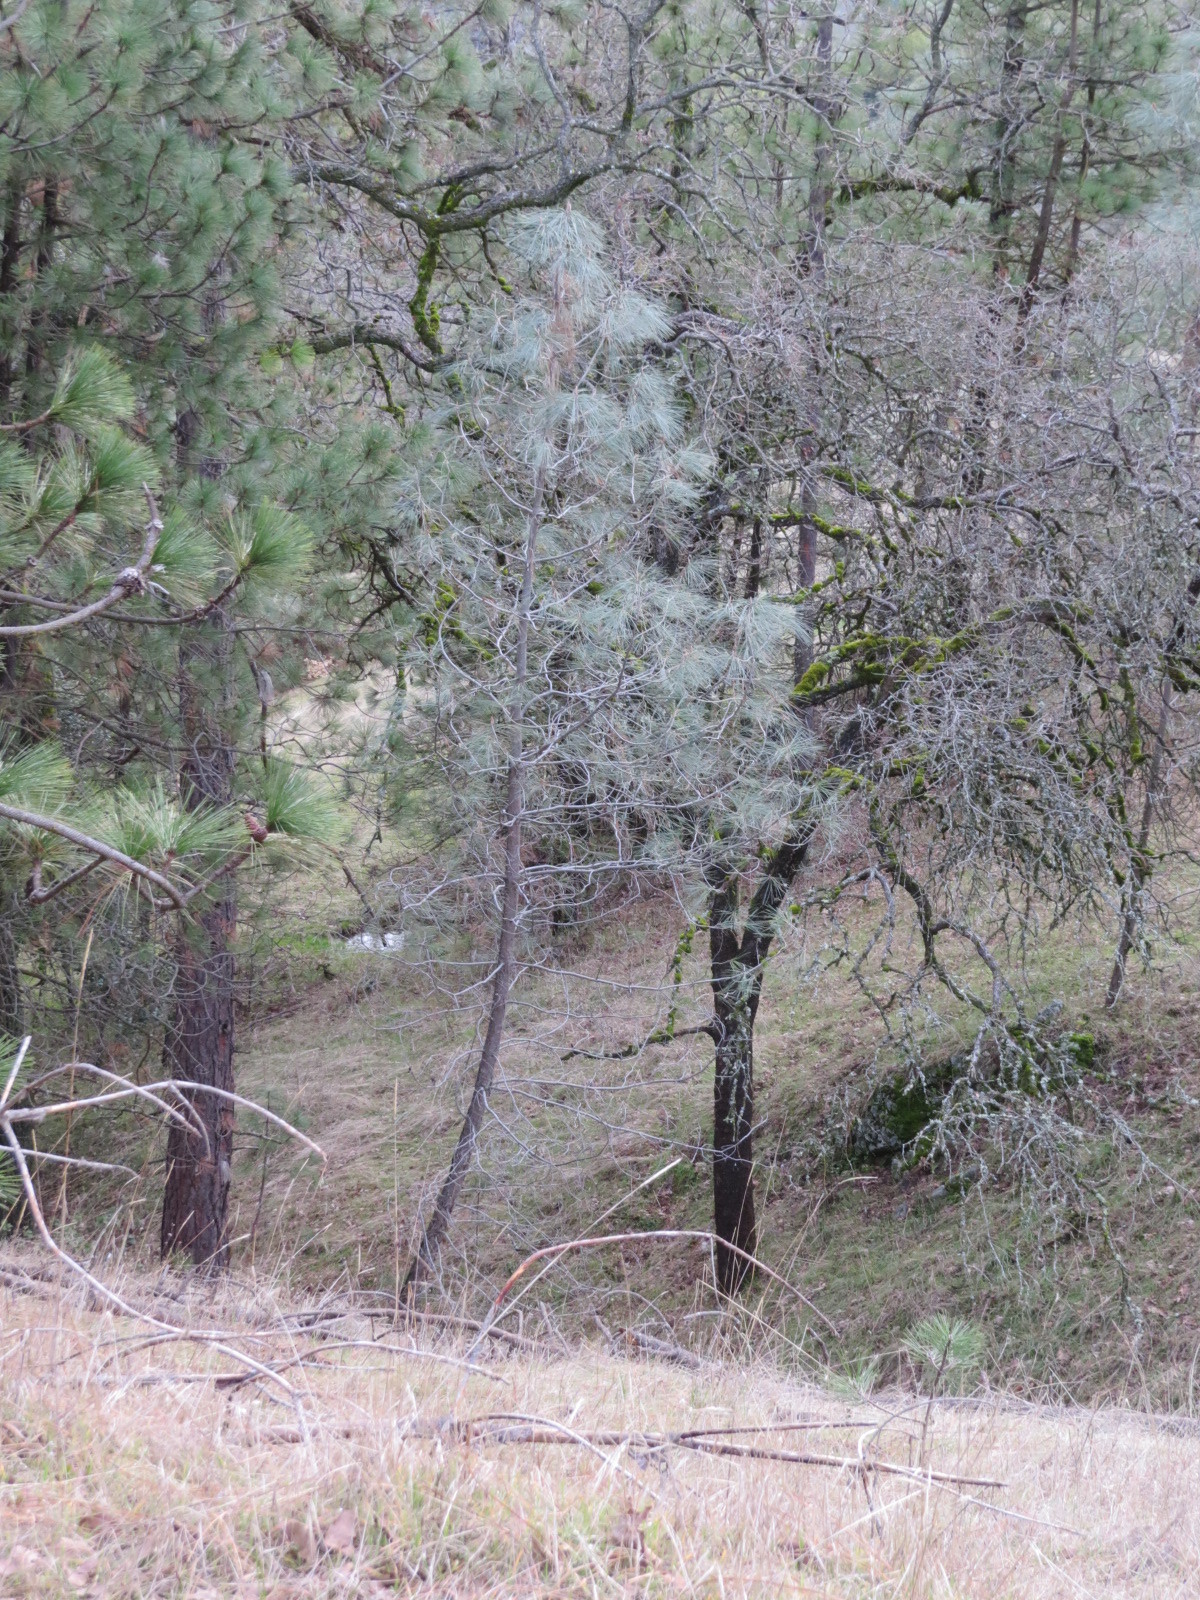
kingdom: Plantae
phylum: Tracheophyta
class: Pinopsida
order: Pinales
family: Pinaceae
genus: Pinus
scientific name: Pinus sabiniana
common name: Bull pine
